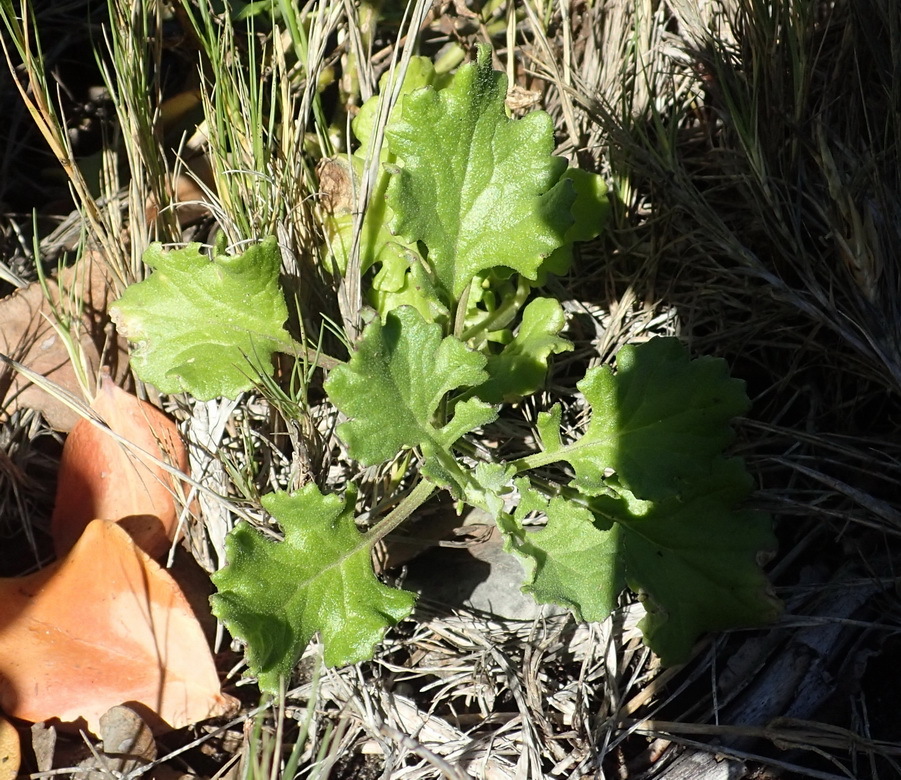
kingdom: Plantae
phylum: Tracheophyta
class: Magnoliopsida
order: Asterales
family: Asteraceae
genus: Senecio
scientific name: Senecio elegans
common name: Purple groundsel
